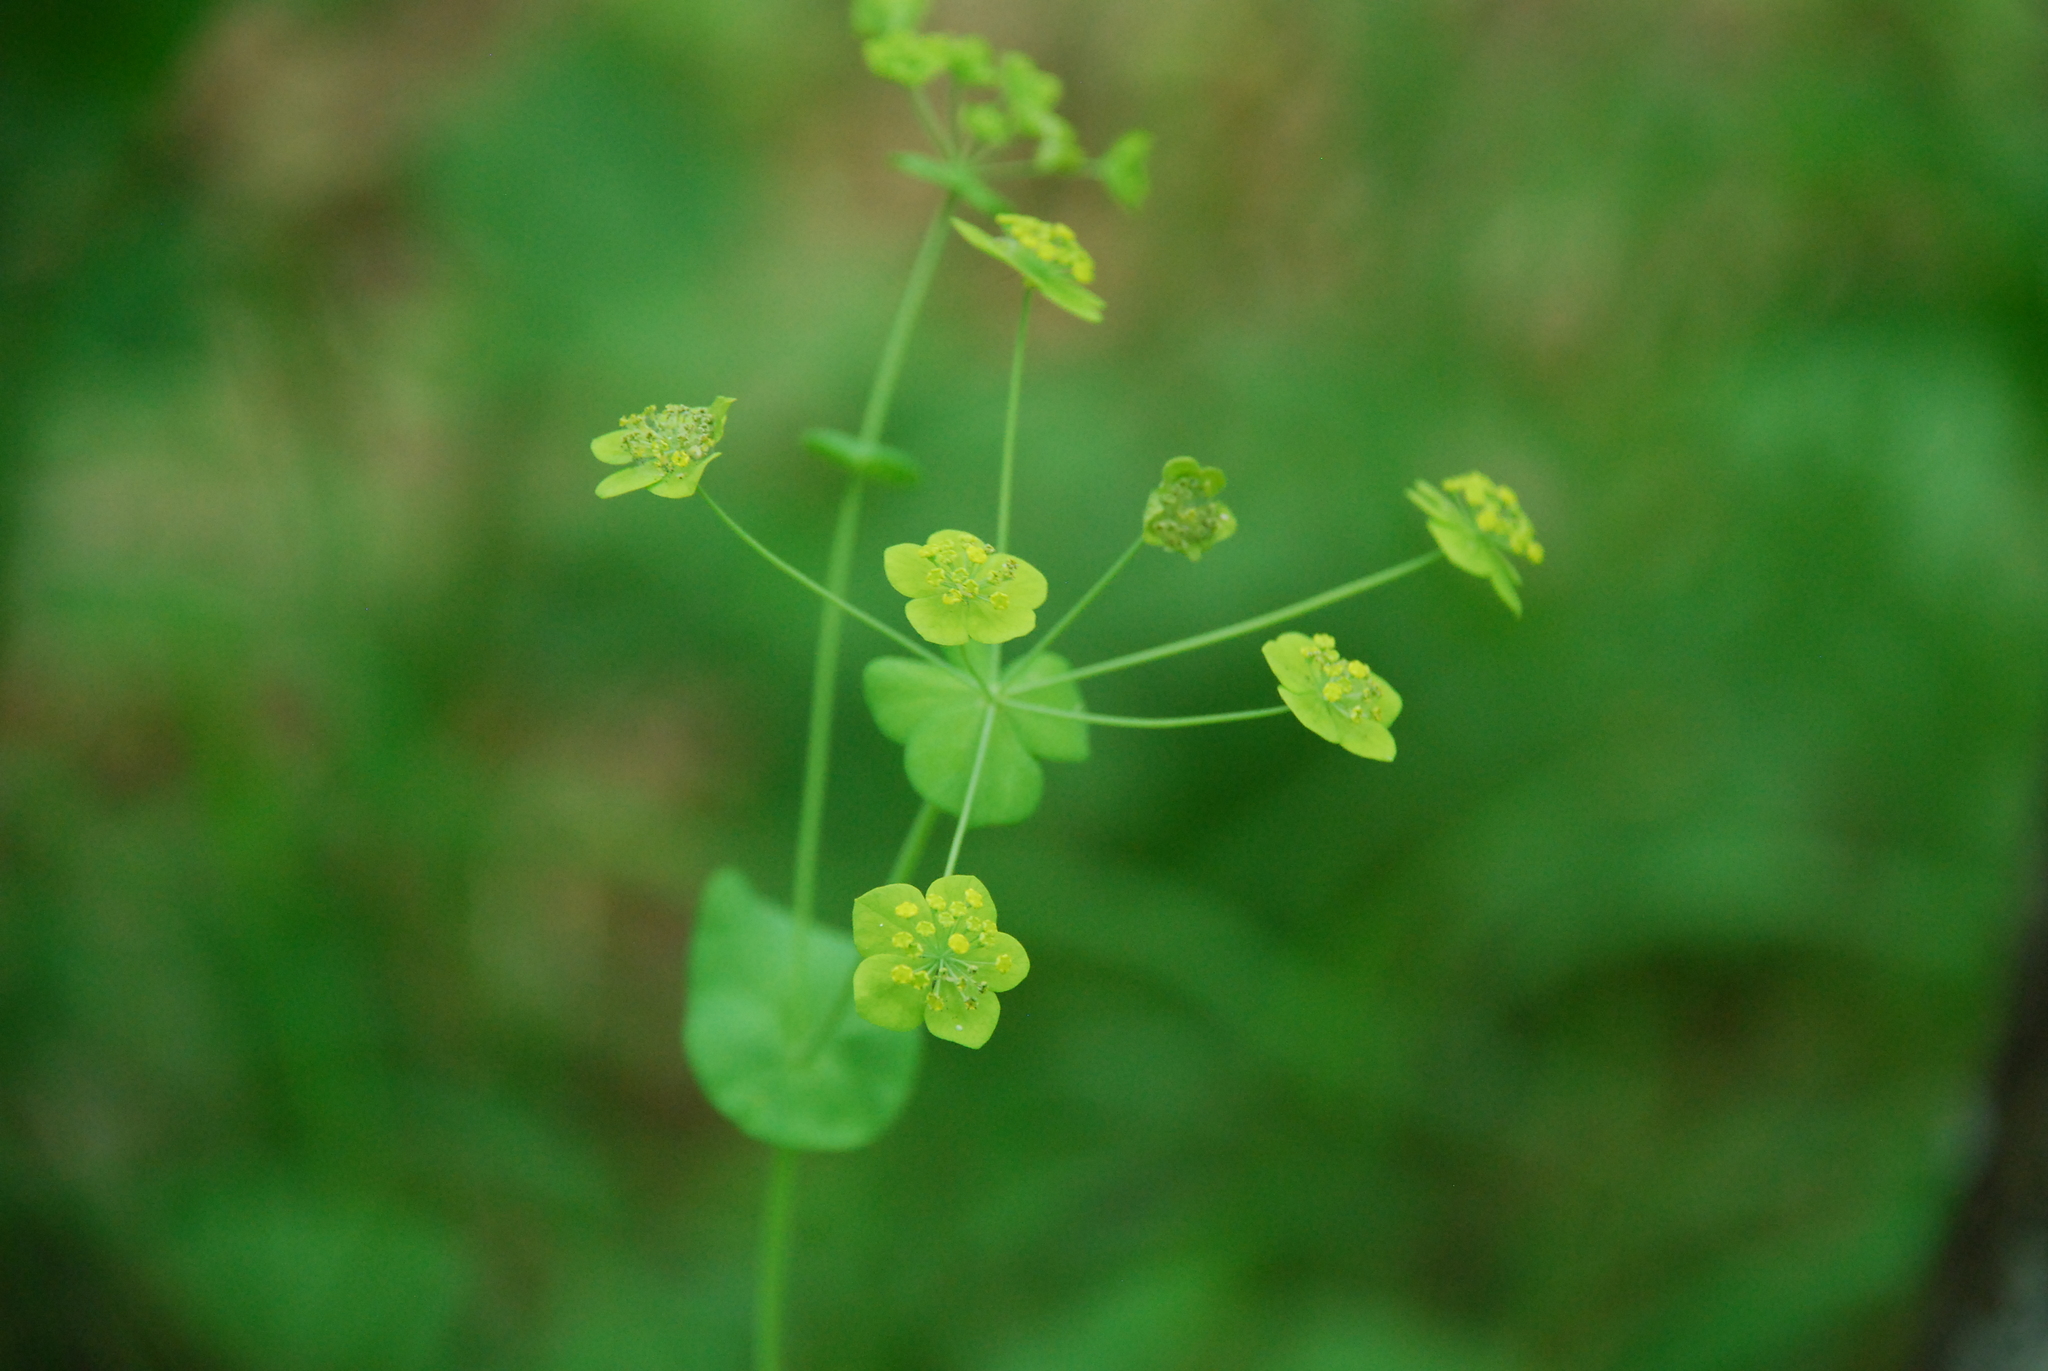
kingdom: Plantae
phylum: Tracheophyta
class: Magnoliopsida
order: Apiales
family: Apiaceae
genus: Bupleurum
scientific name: Bupleurum aureum
